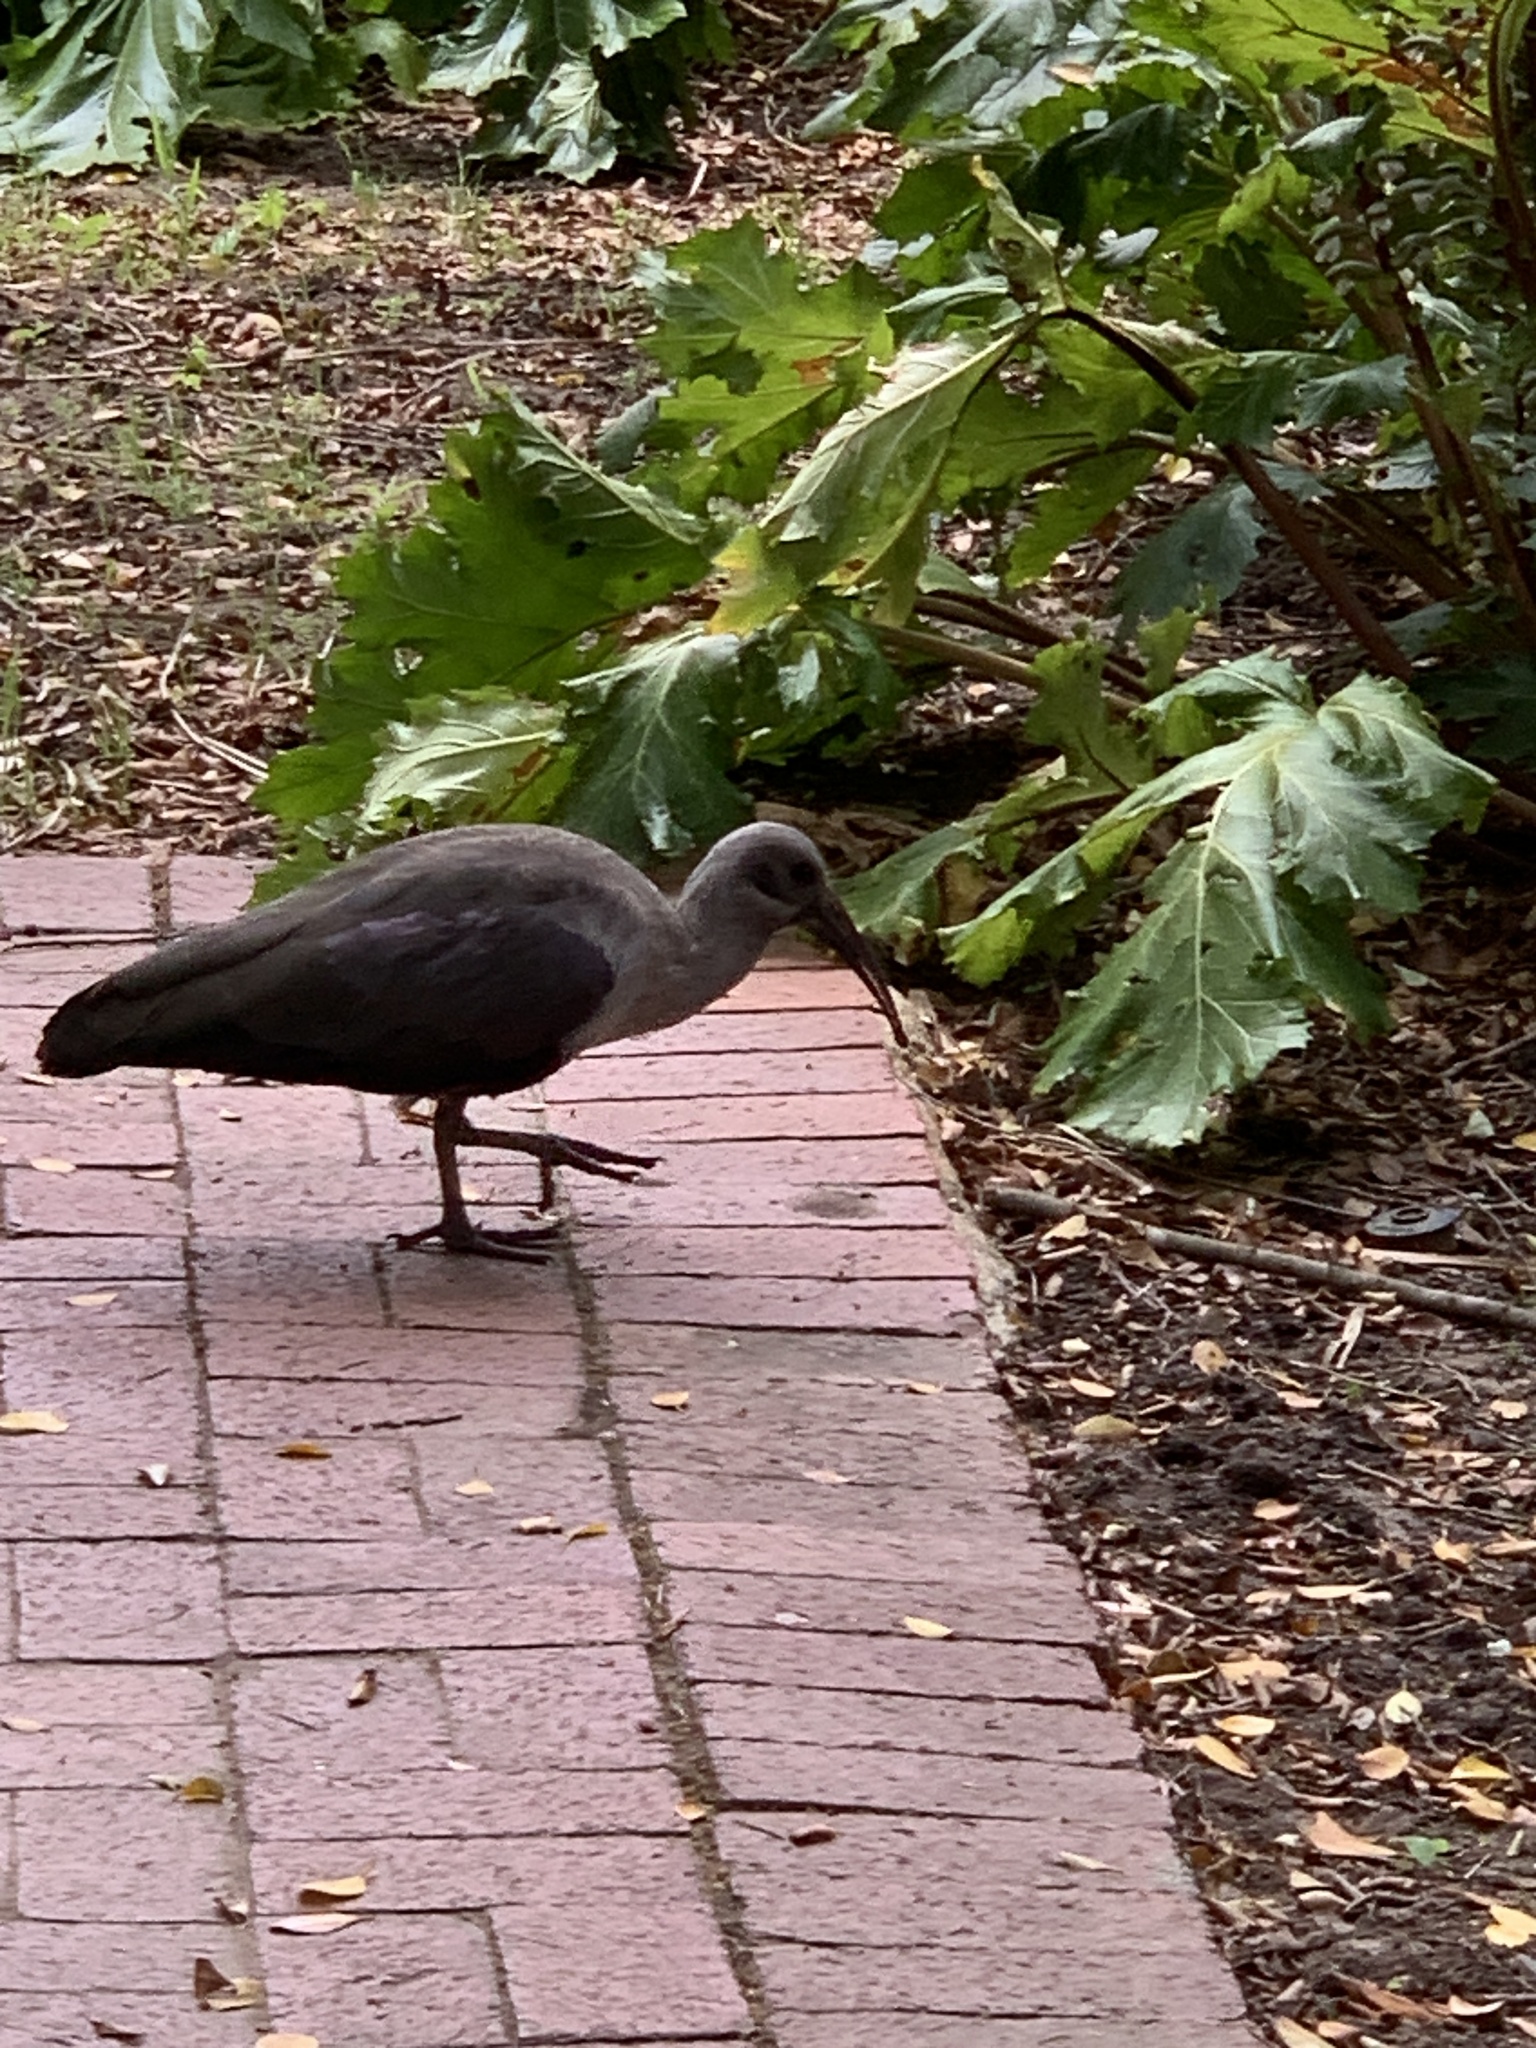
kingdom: Animalia
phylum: Chordata
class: Aves
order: Pelecaniformes
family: Threskiornithidae
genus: Bostrychia
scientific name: Bostrychia hagedash
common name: Hadada ibis
